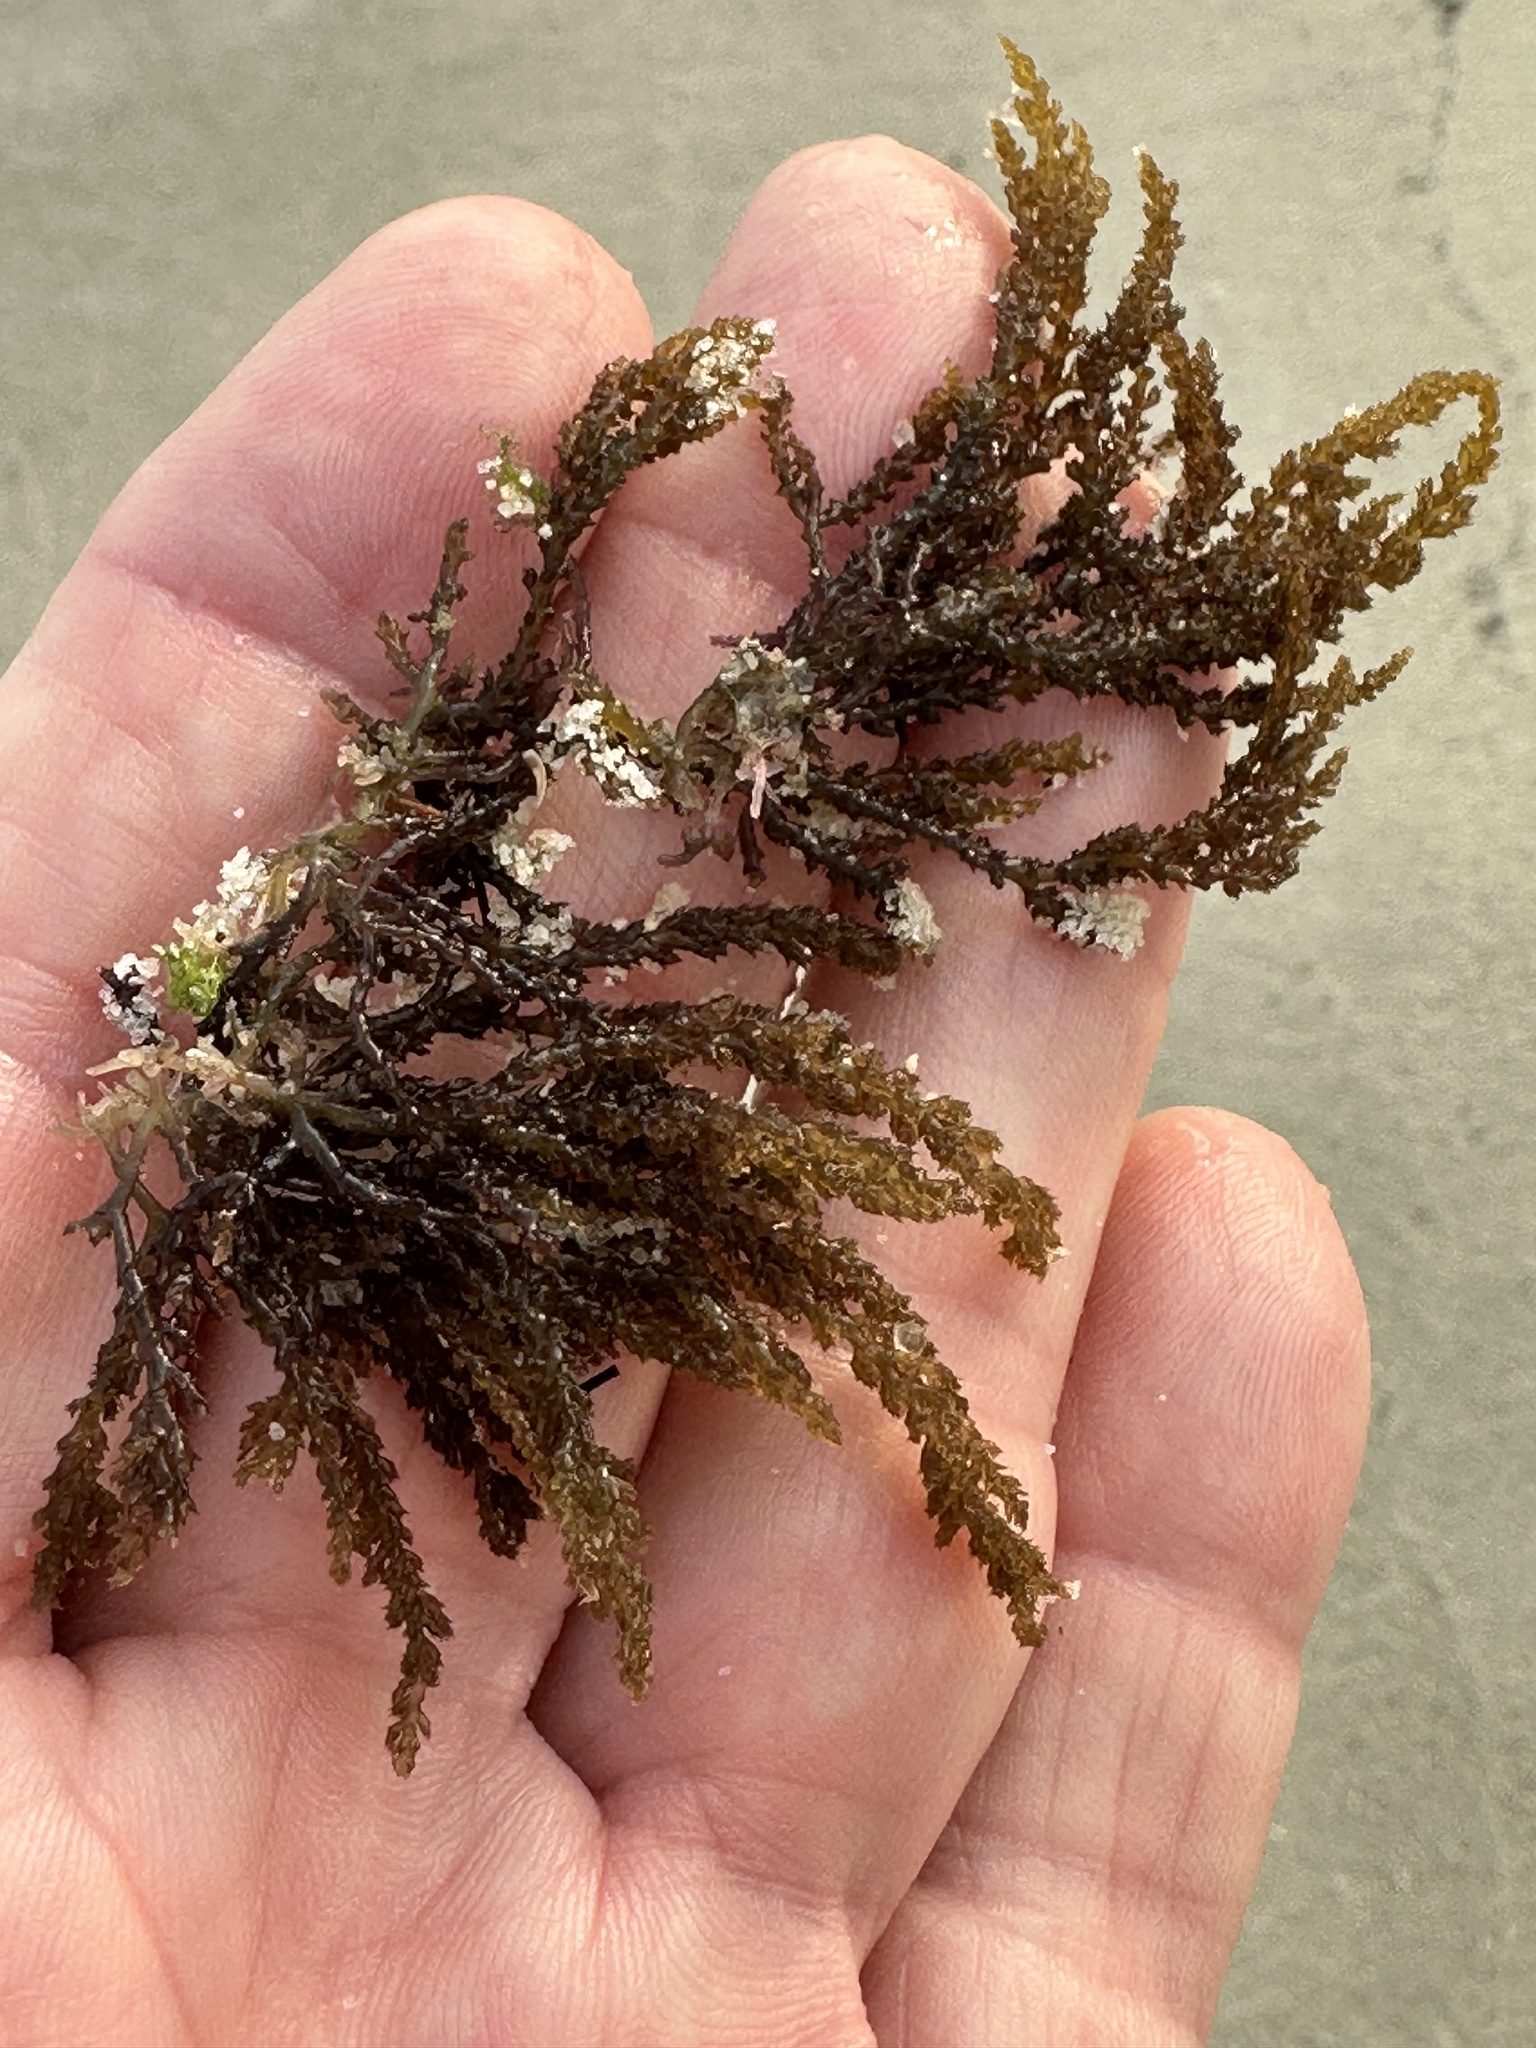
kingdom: Plantae
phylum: Rhodophyta
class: Florideophyceae
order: Ceramiales
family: Rhodomelaceae
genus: Acanthophora
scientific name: Acanthophora spicifera
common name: Red algae
